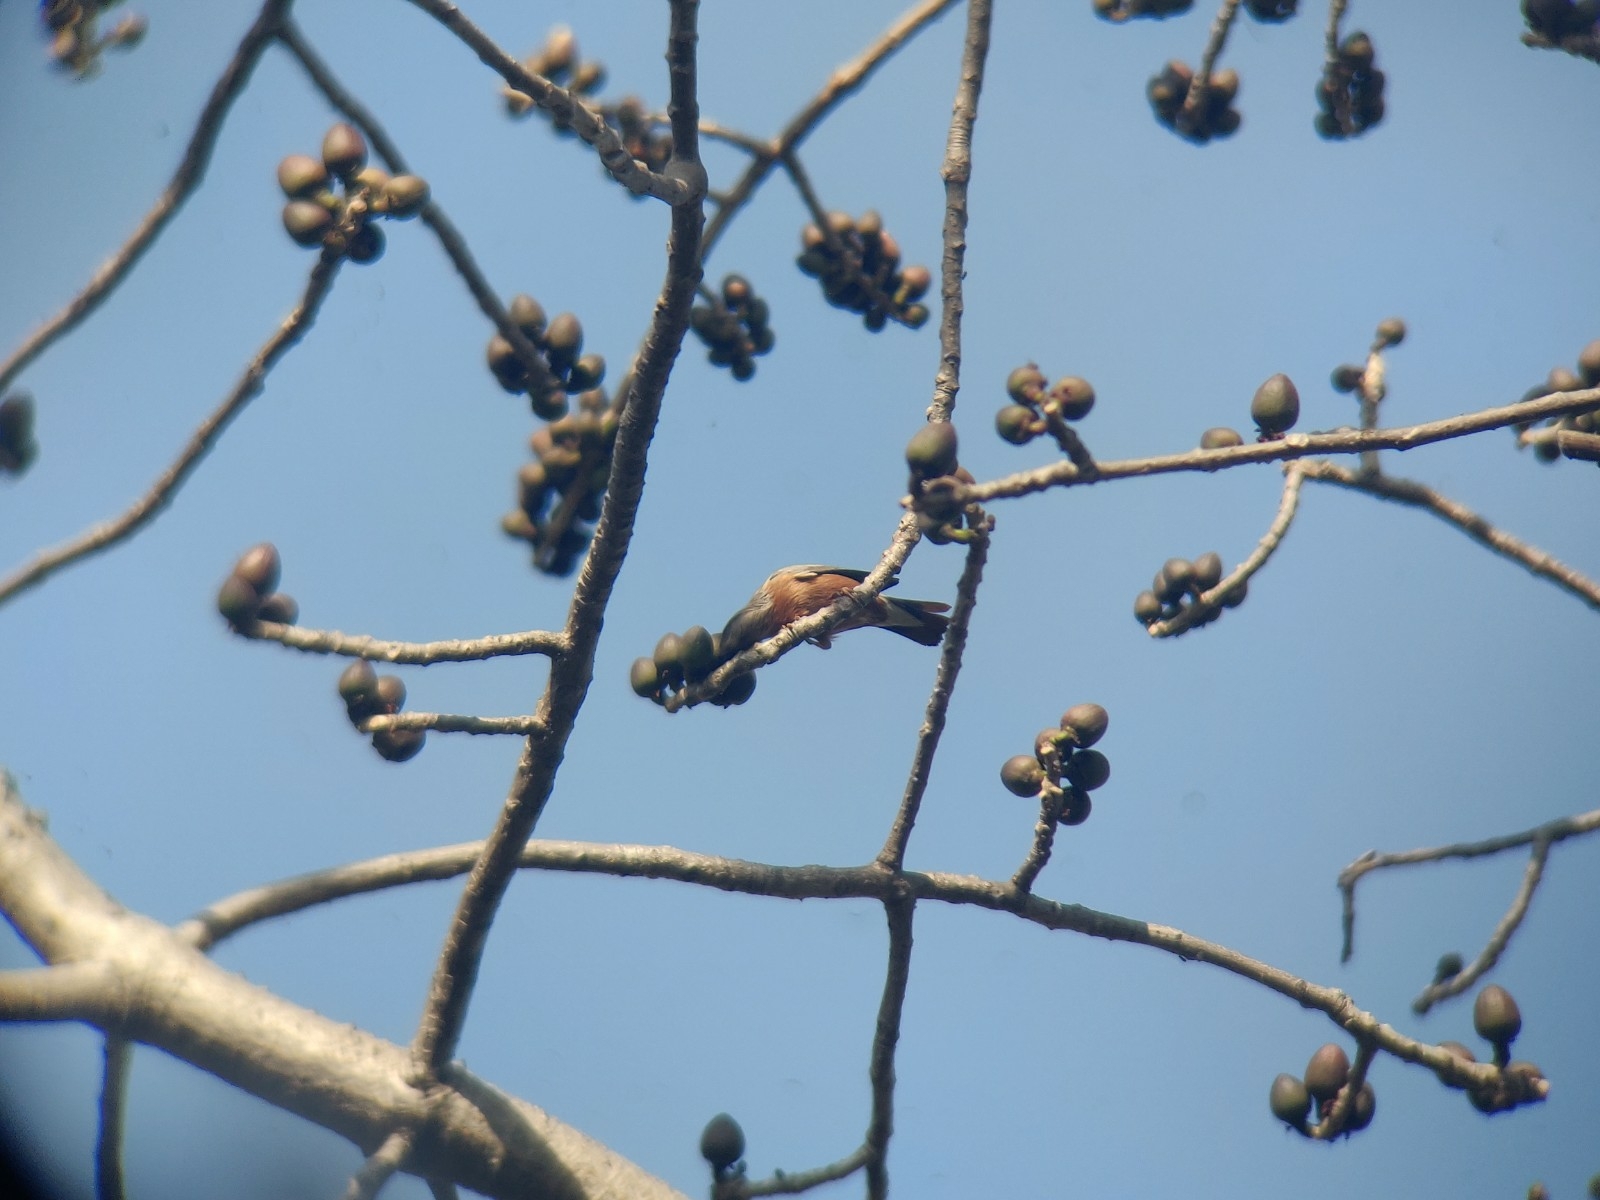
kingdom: Animalia
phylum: Chordata
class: Aves
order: Passeriformes
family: Sturnidae
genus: Sturnia
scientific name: Sturnia malabarica
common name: Chestnut-tailed starling
